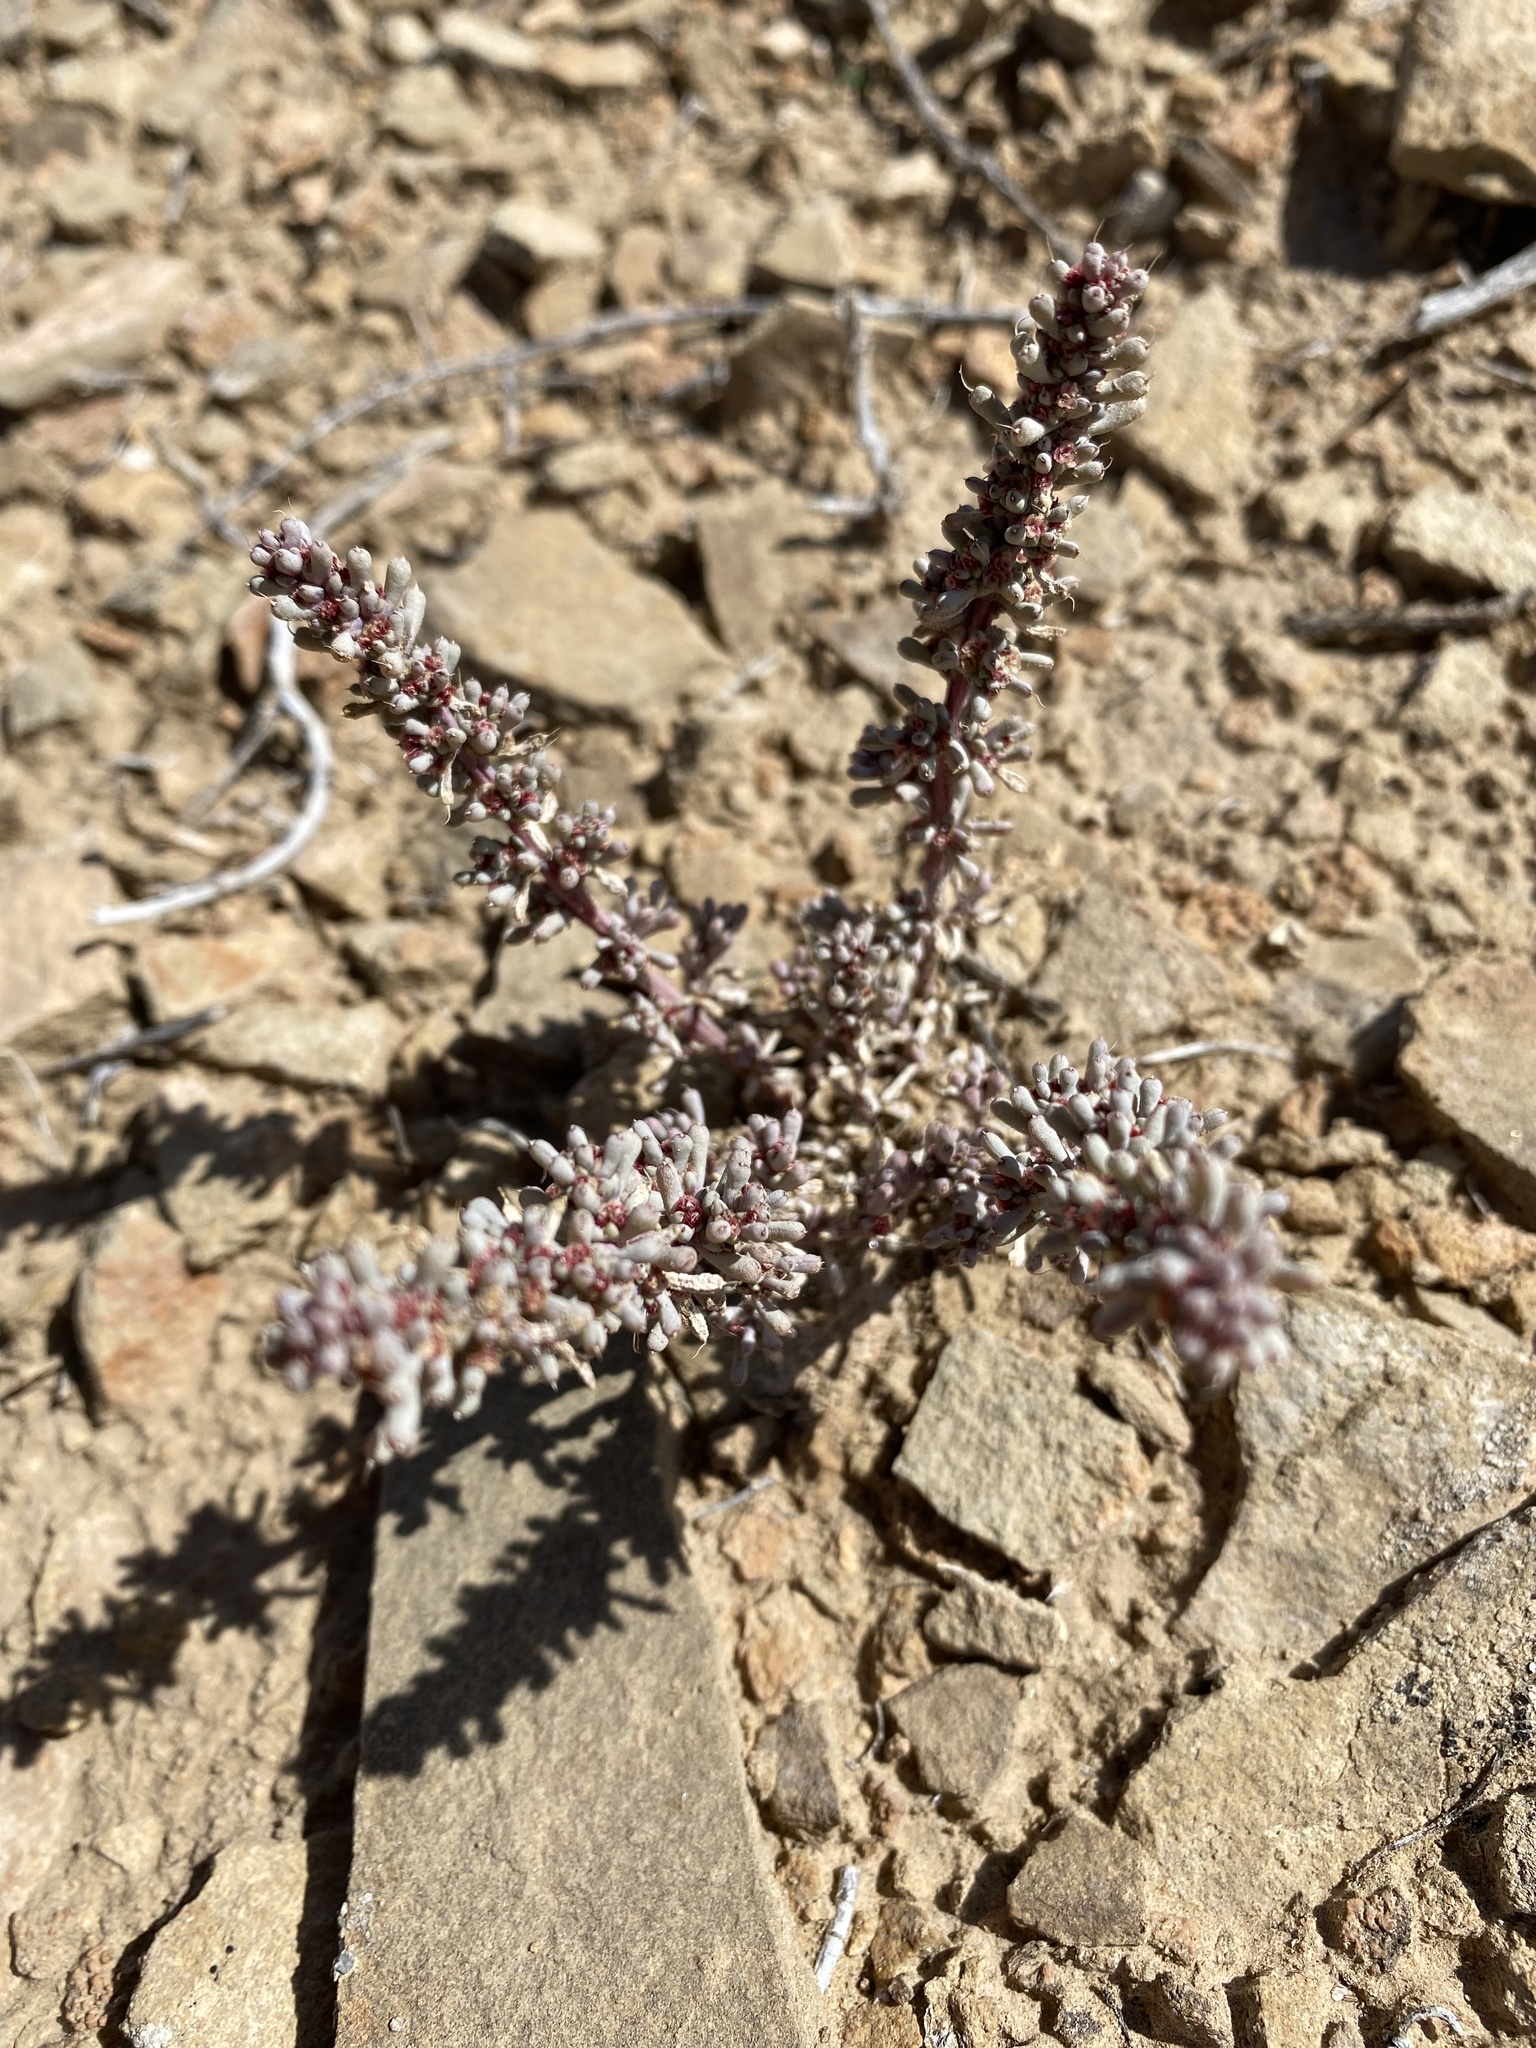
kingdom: Plantae
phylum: Tracheophyta
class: Magnoliopsida
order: Caryophyllales
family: Amaranthaceae
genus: Halogeton
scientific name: Halogeton glomeratus
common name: Saltlover
